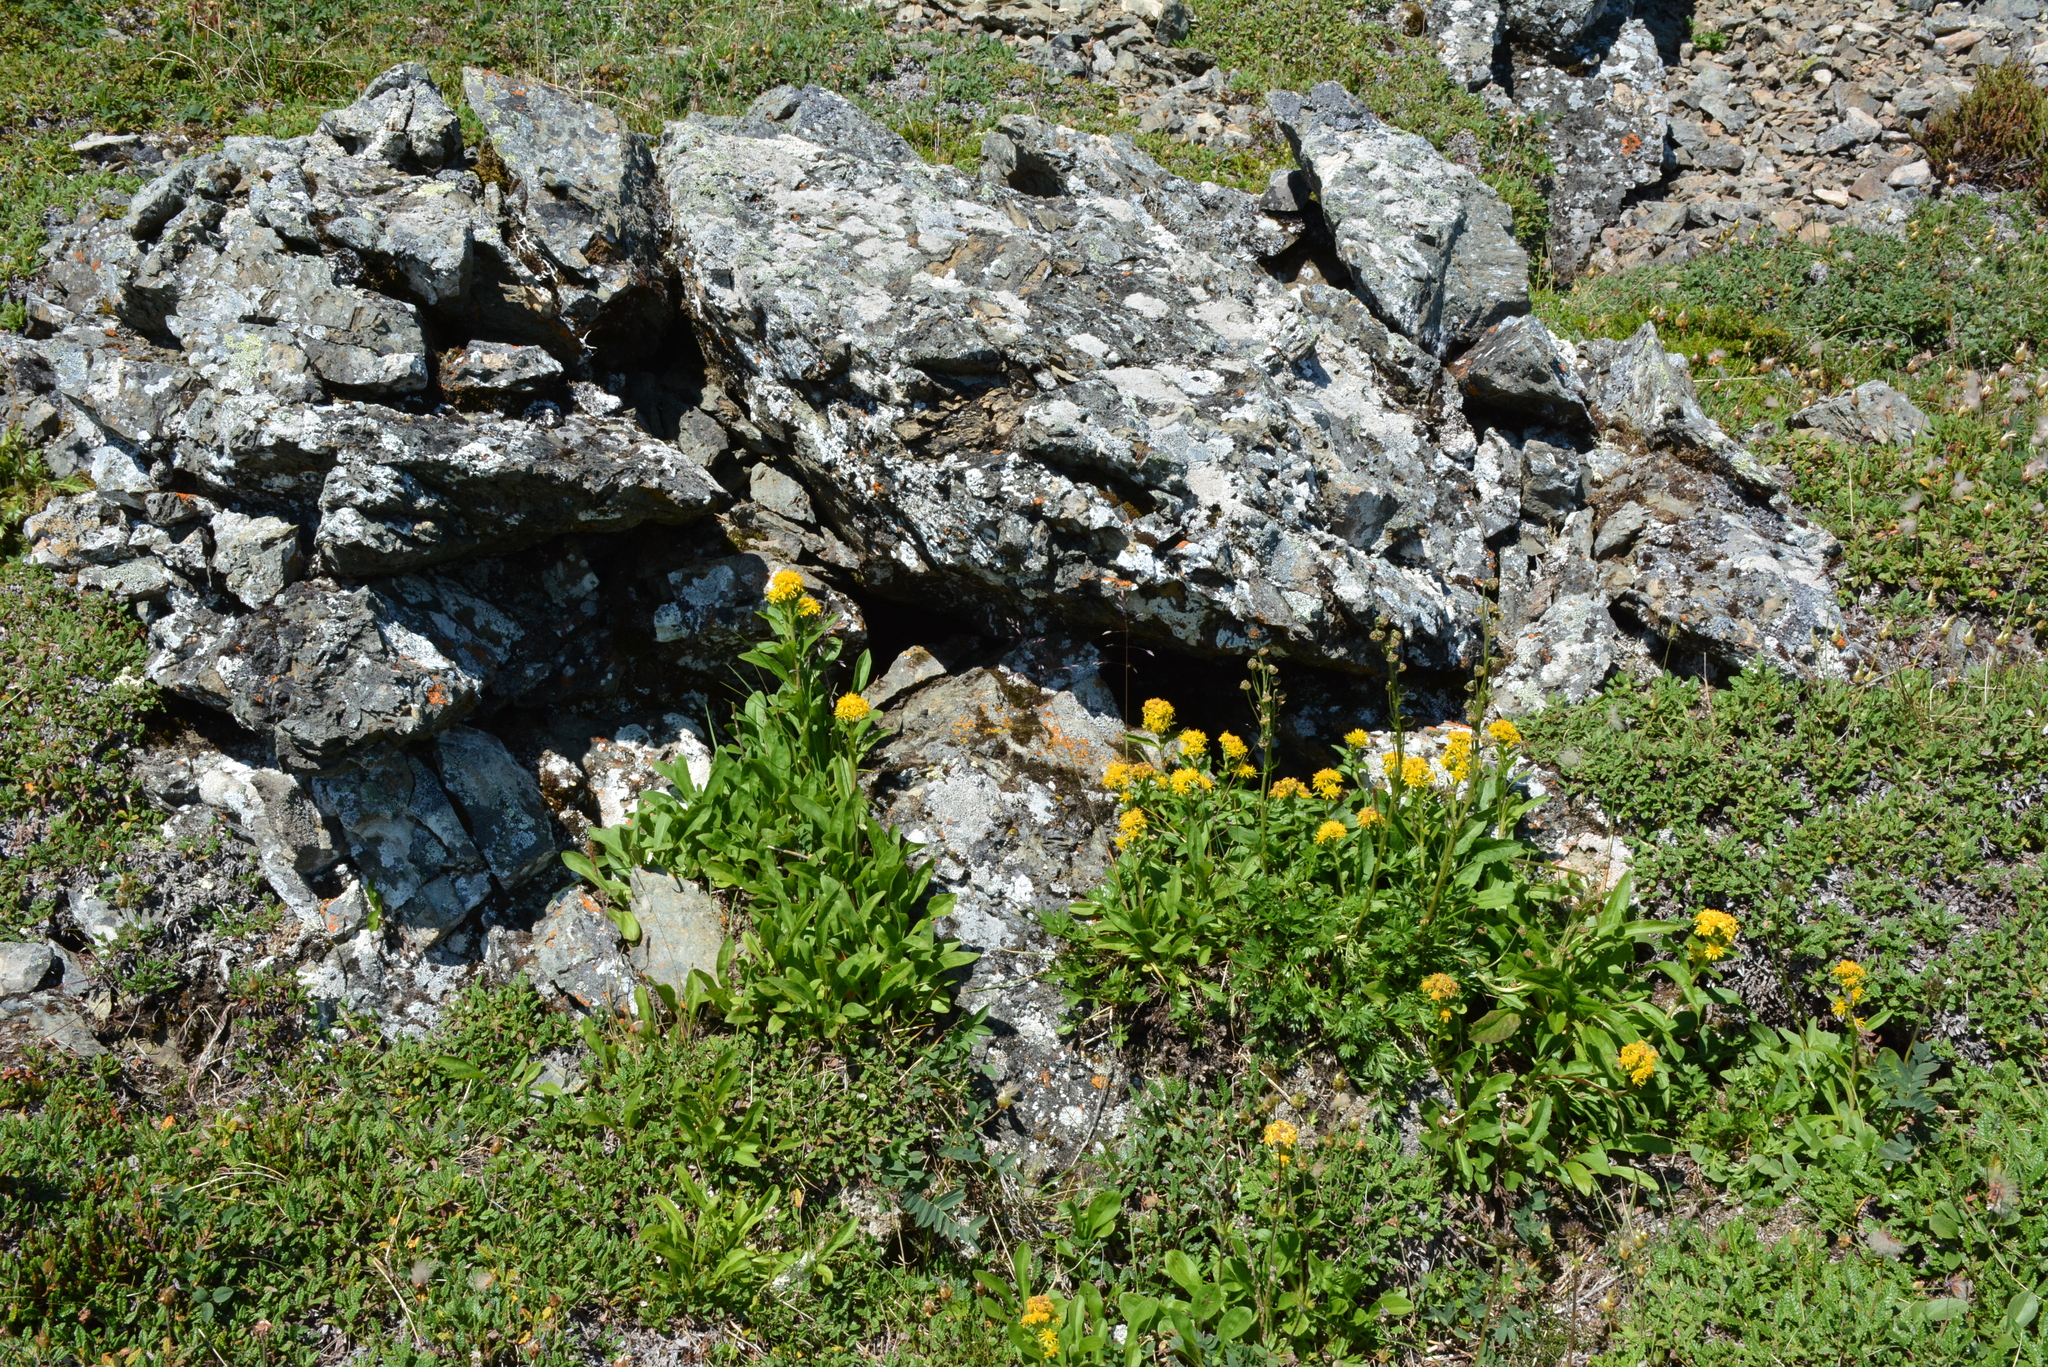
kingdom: Plantae
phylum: Tracheophyta
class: Magnoliopsida
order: Asterales
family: Asteraceae
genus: Solidago
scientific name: Solidago compacta
